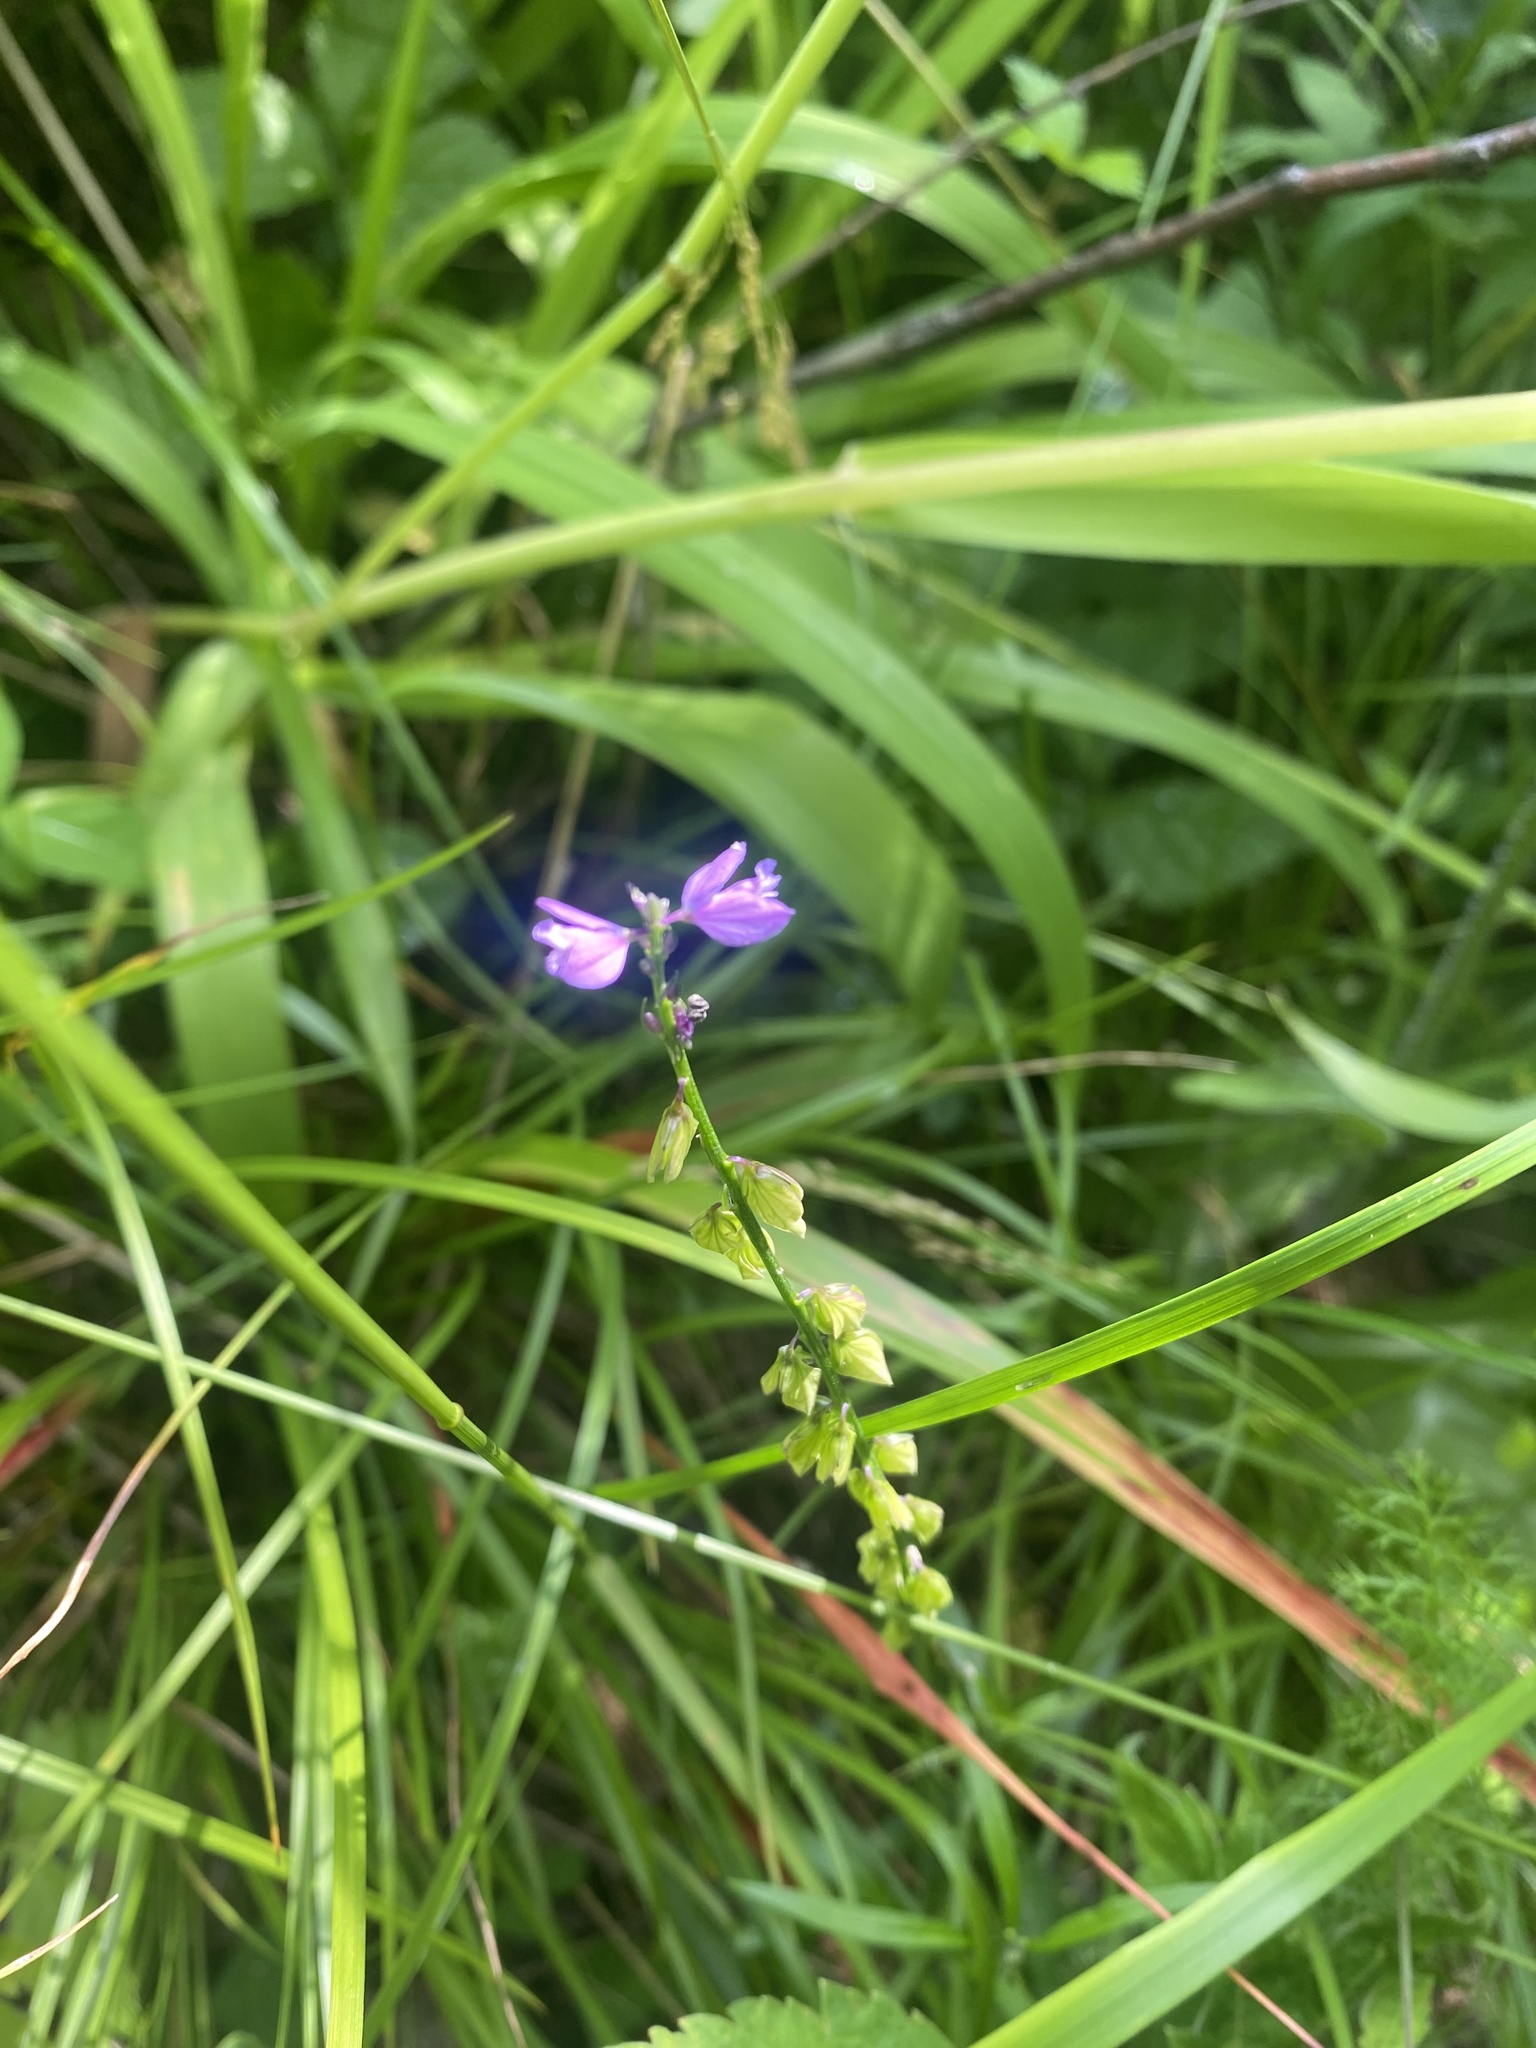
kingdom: Plantae
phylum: Tracheophyta
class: Magnoliopsida
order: Fabales
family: Polygalaceae
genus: Polygala
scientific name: Polygala comosa
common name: Tufted milkwort
